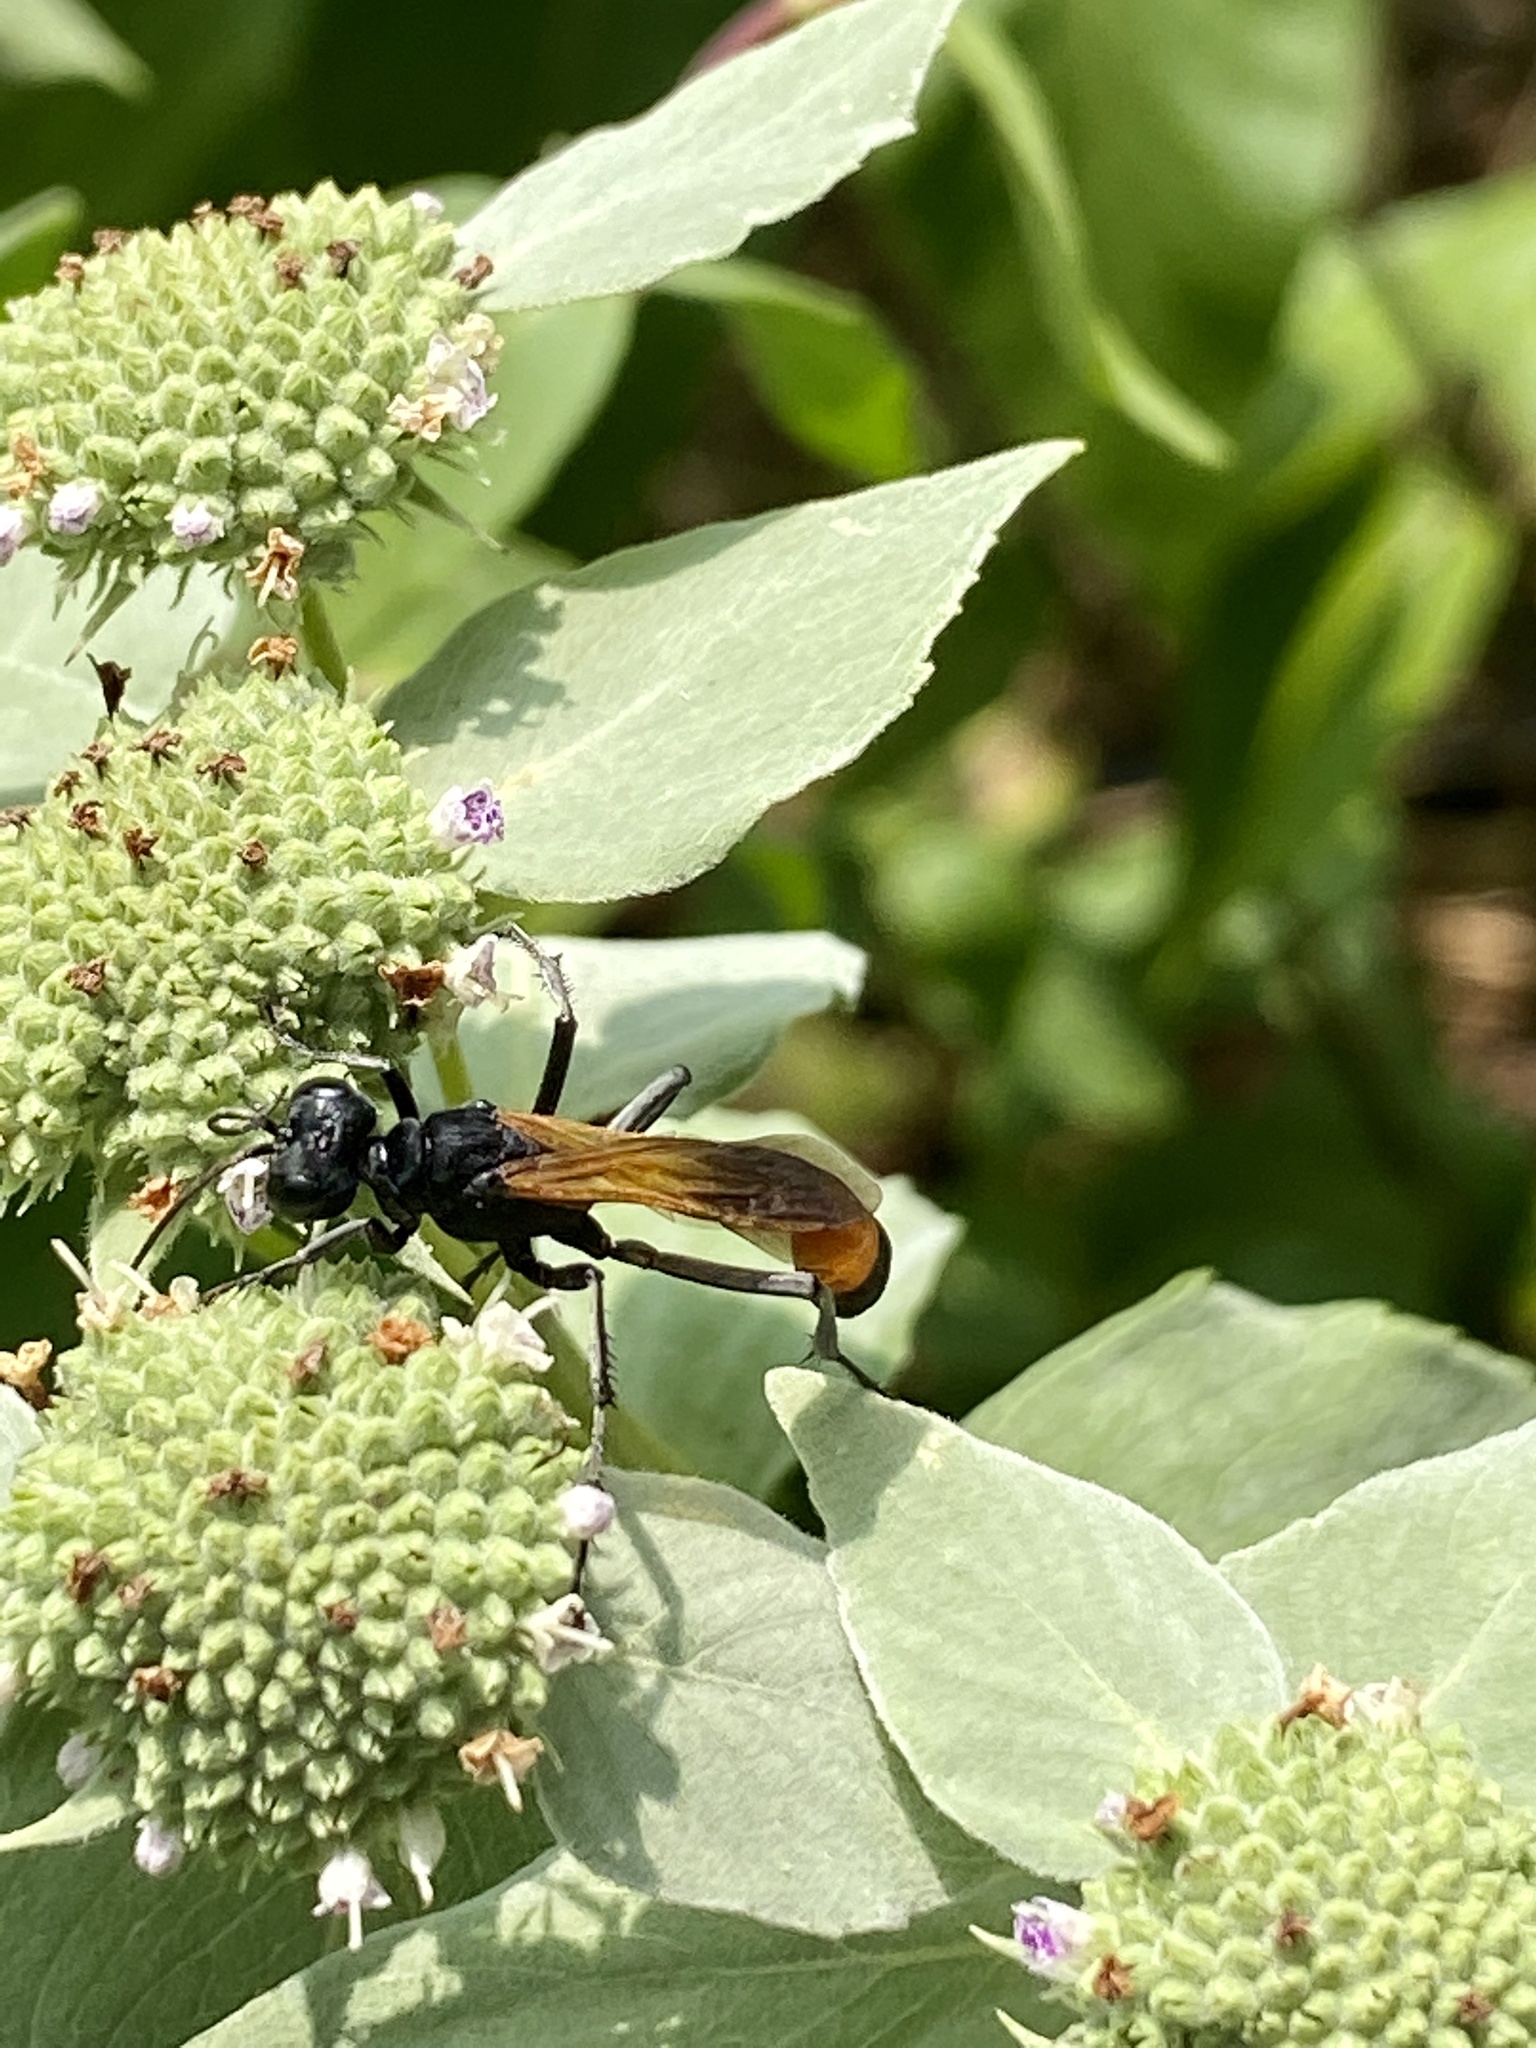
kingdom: Animalia
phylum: Arthropoda
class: Insecta
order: Hymenoptera
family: Sphecidae
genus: Ammophila
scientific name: Ammophila pictipennis
